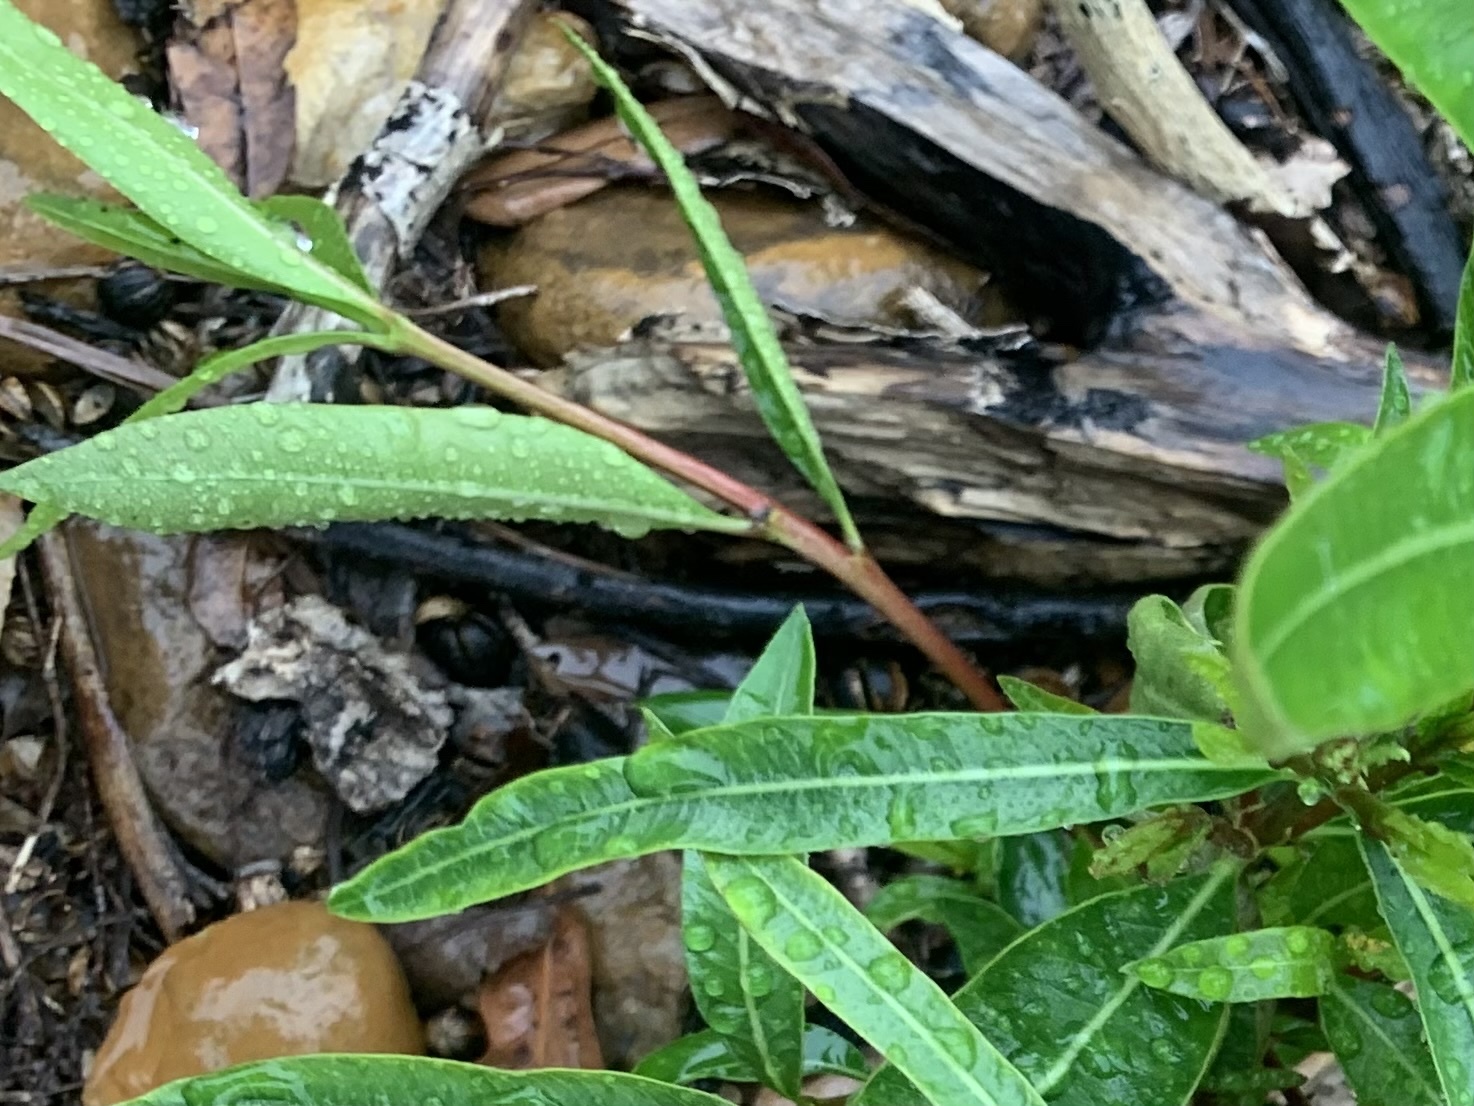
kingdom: Plantae
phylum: Tracheophyta
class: Magnoliopsida
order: Gentianales
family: Apocynaceae
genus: Nerium
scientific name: Nerium oleander
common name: Oleander
